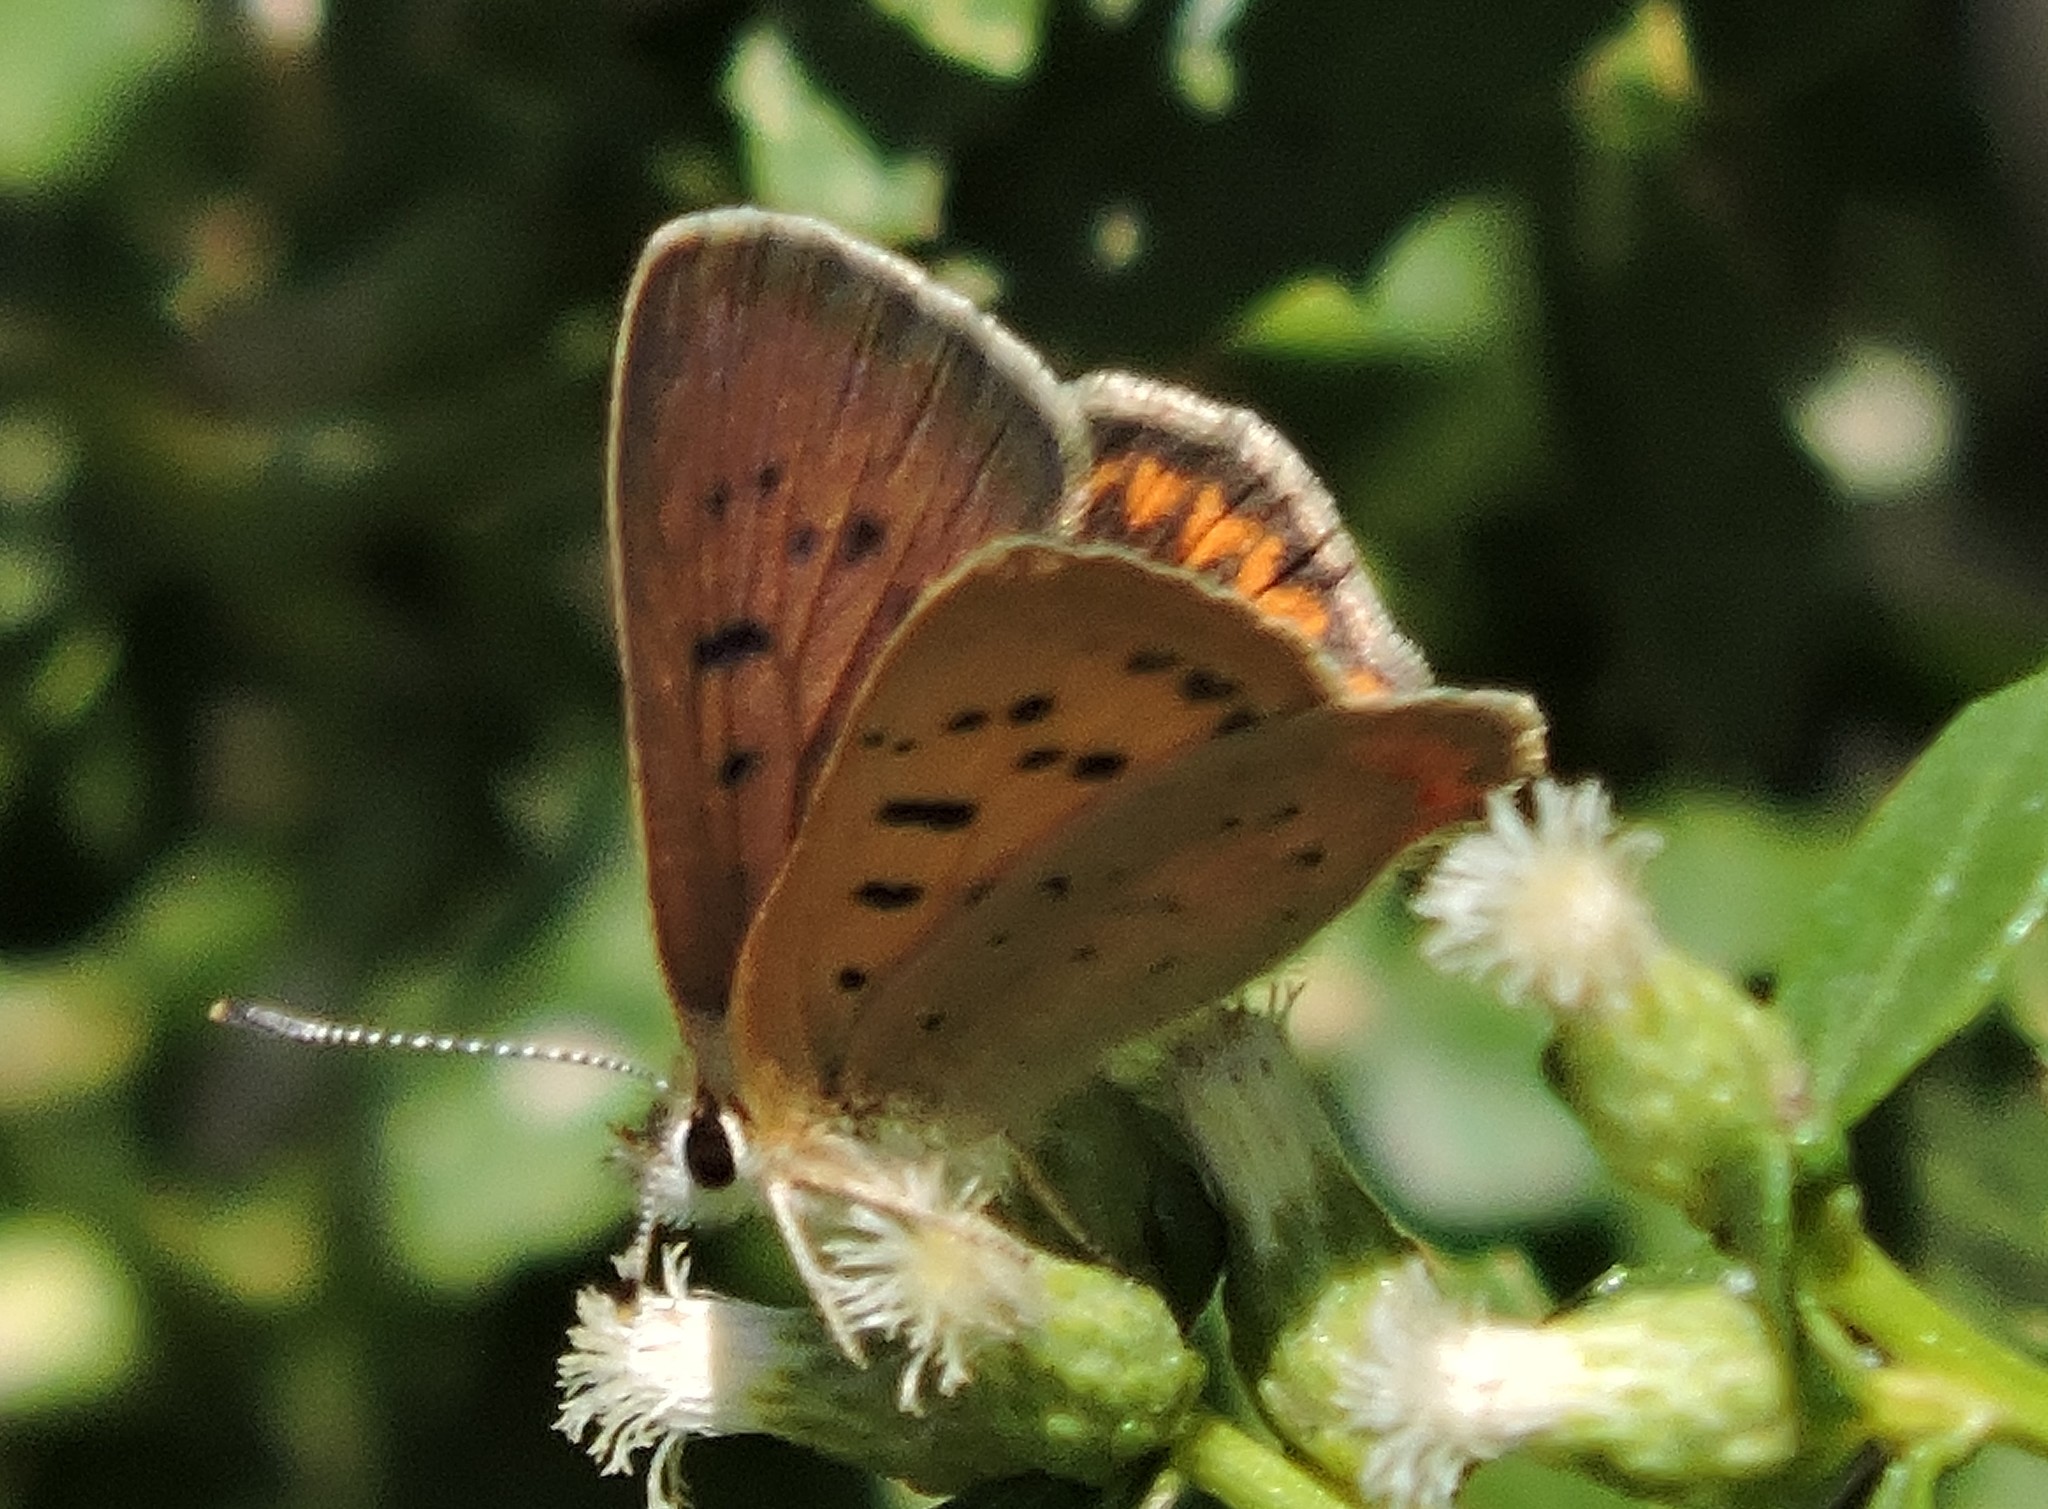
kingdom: Animalia
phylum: Arthropoda
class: Insecta
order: Lepidoptera
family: Lycaenidae
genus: Tharsalea
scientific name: Tharsalea helloides
